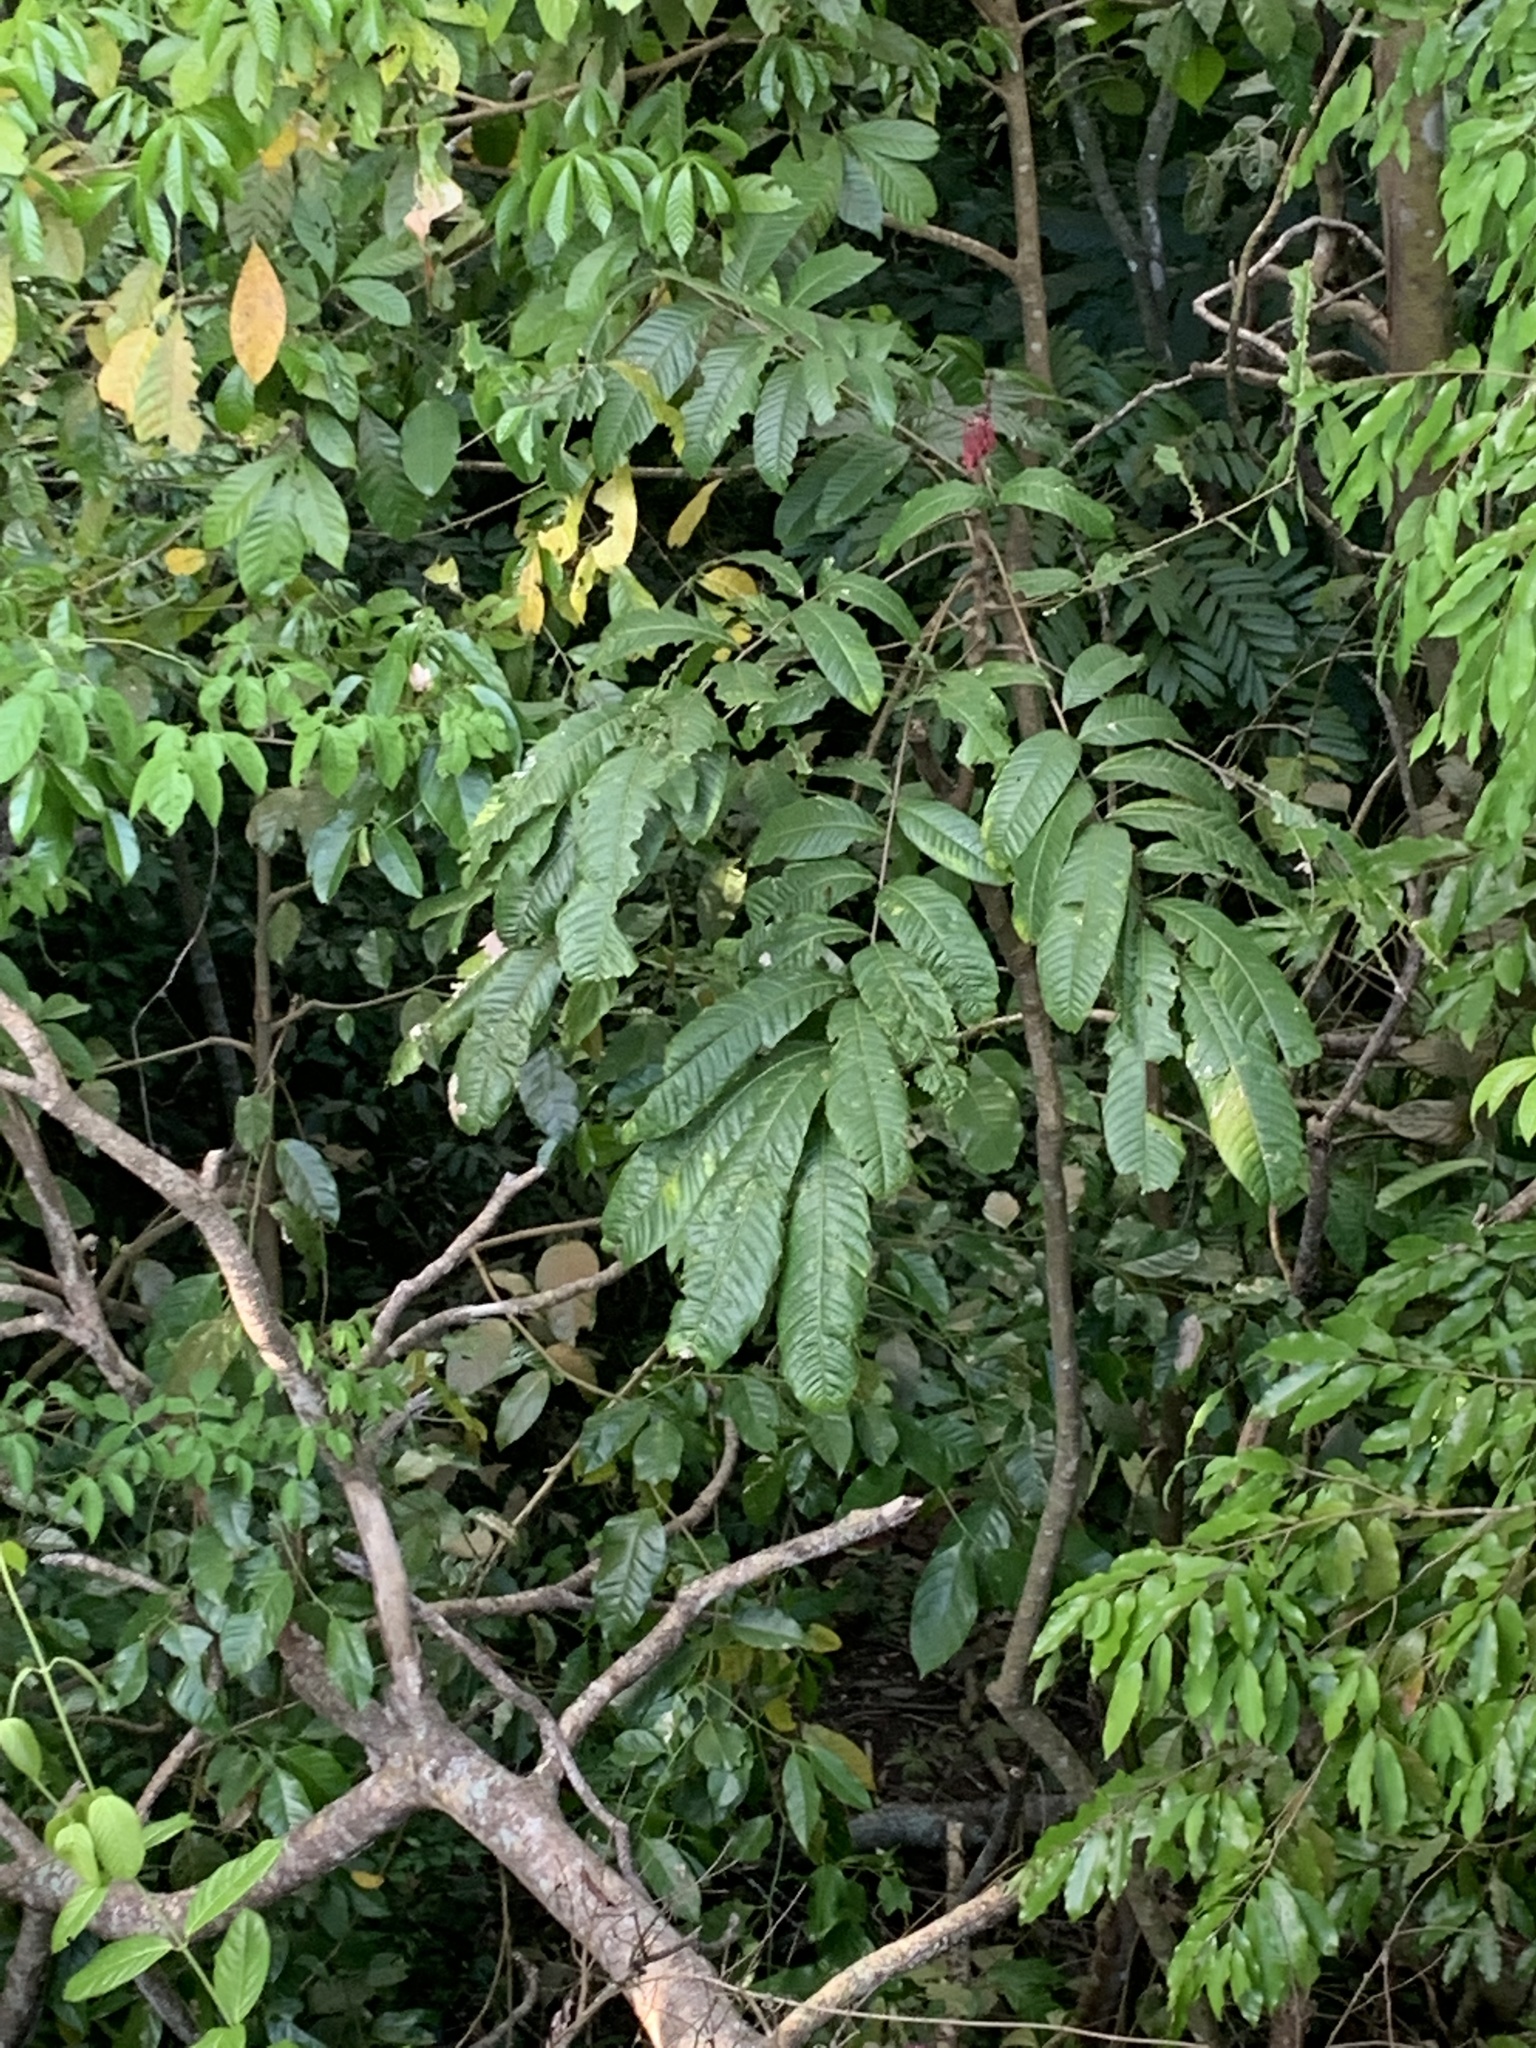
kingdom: Plantae
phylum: Tracheophyta
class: Magnoliopsida
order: Sapindales
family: Sapindaceae
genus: Talisia
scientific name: Talisia nervosa
